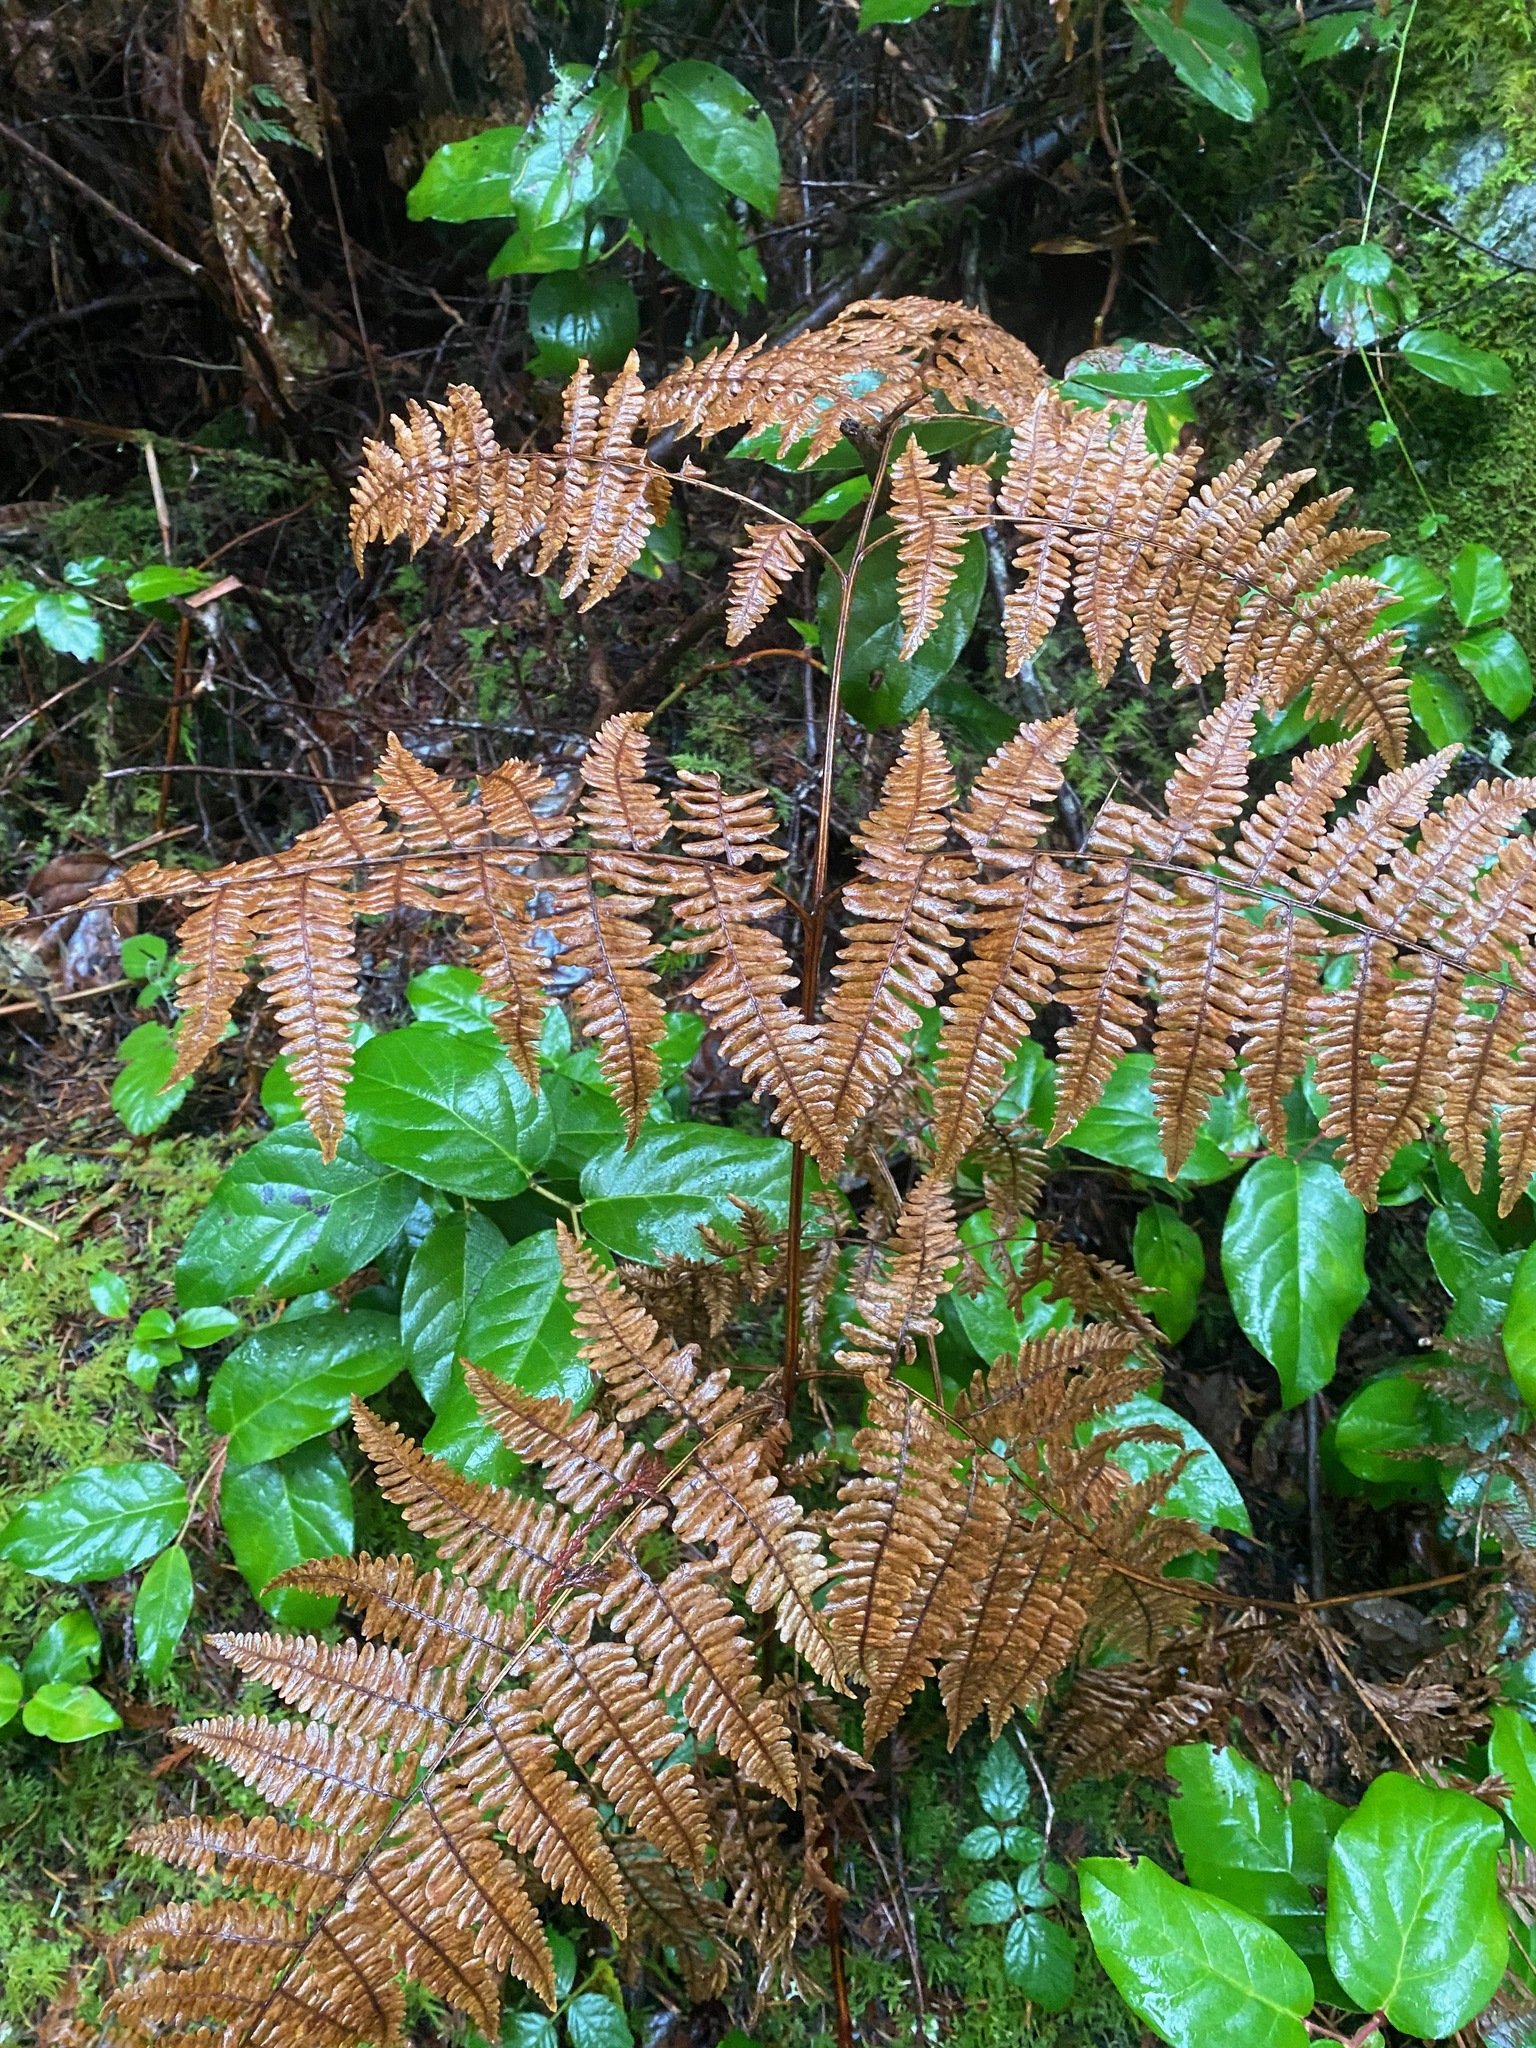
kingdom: Plantae
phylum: Tracheophyta
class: Polypodiopsida
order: Polypodiales
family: Dennstaedtiaceae
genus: Pteridium
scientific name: Pteridium aquilinum
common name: Bracken
